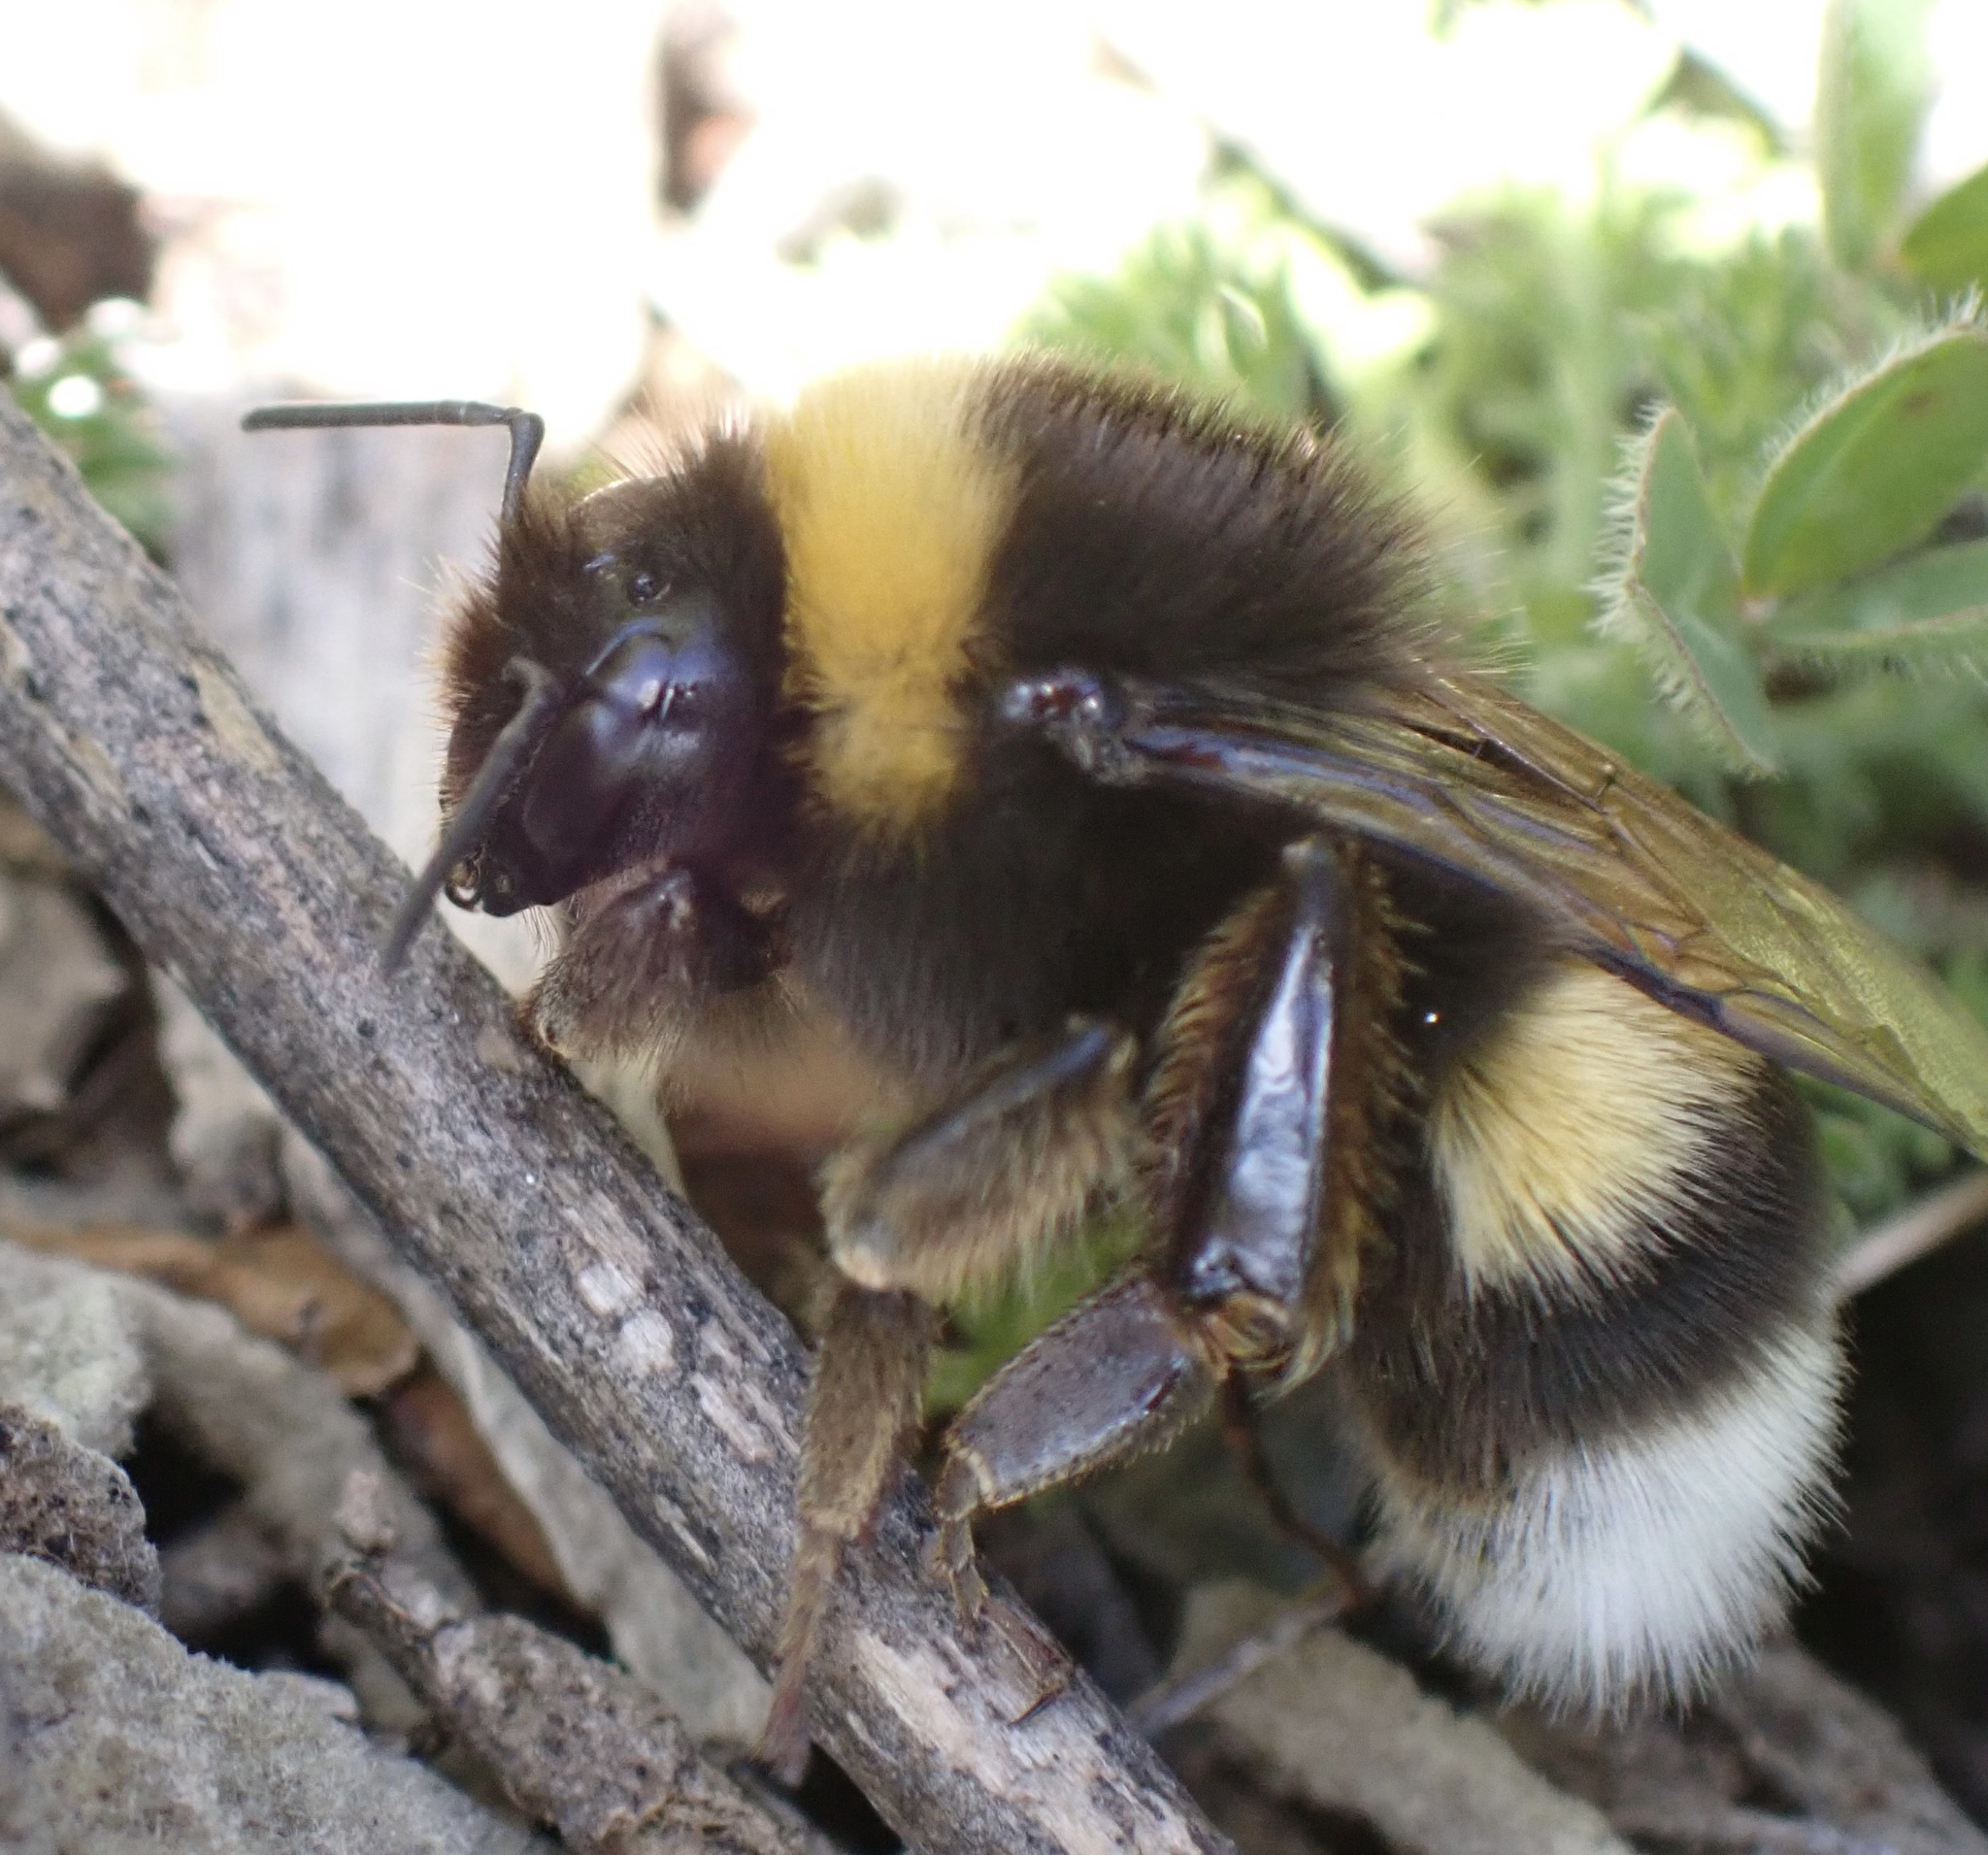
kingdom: Animalia
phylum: Arthropoda
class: Insecta
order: Hymenoptera
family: Apidae
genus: Bombus
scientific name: Bombus terrestris
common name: Buff-tailed bumblebee
